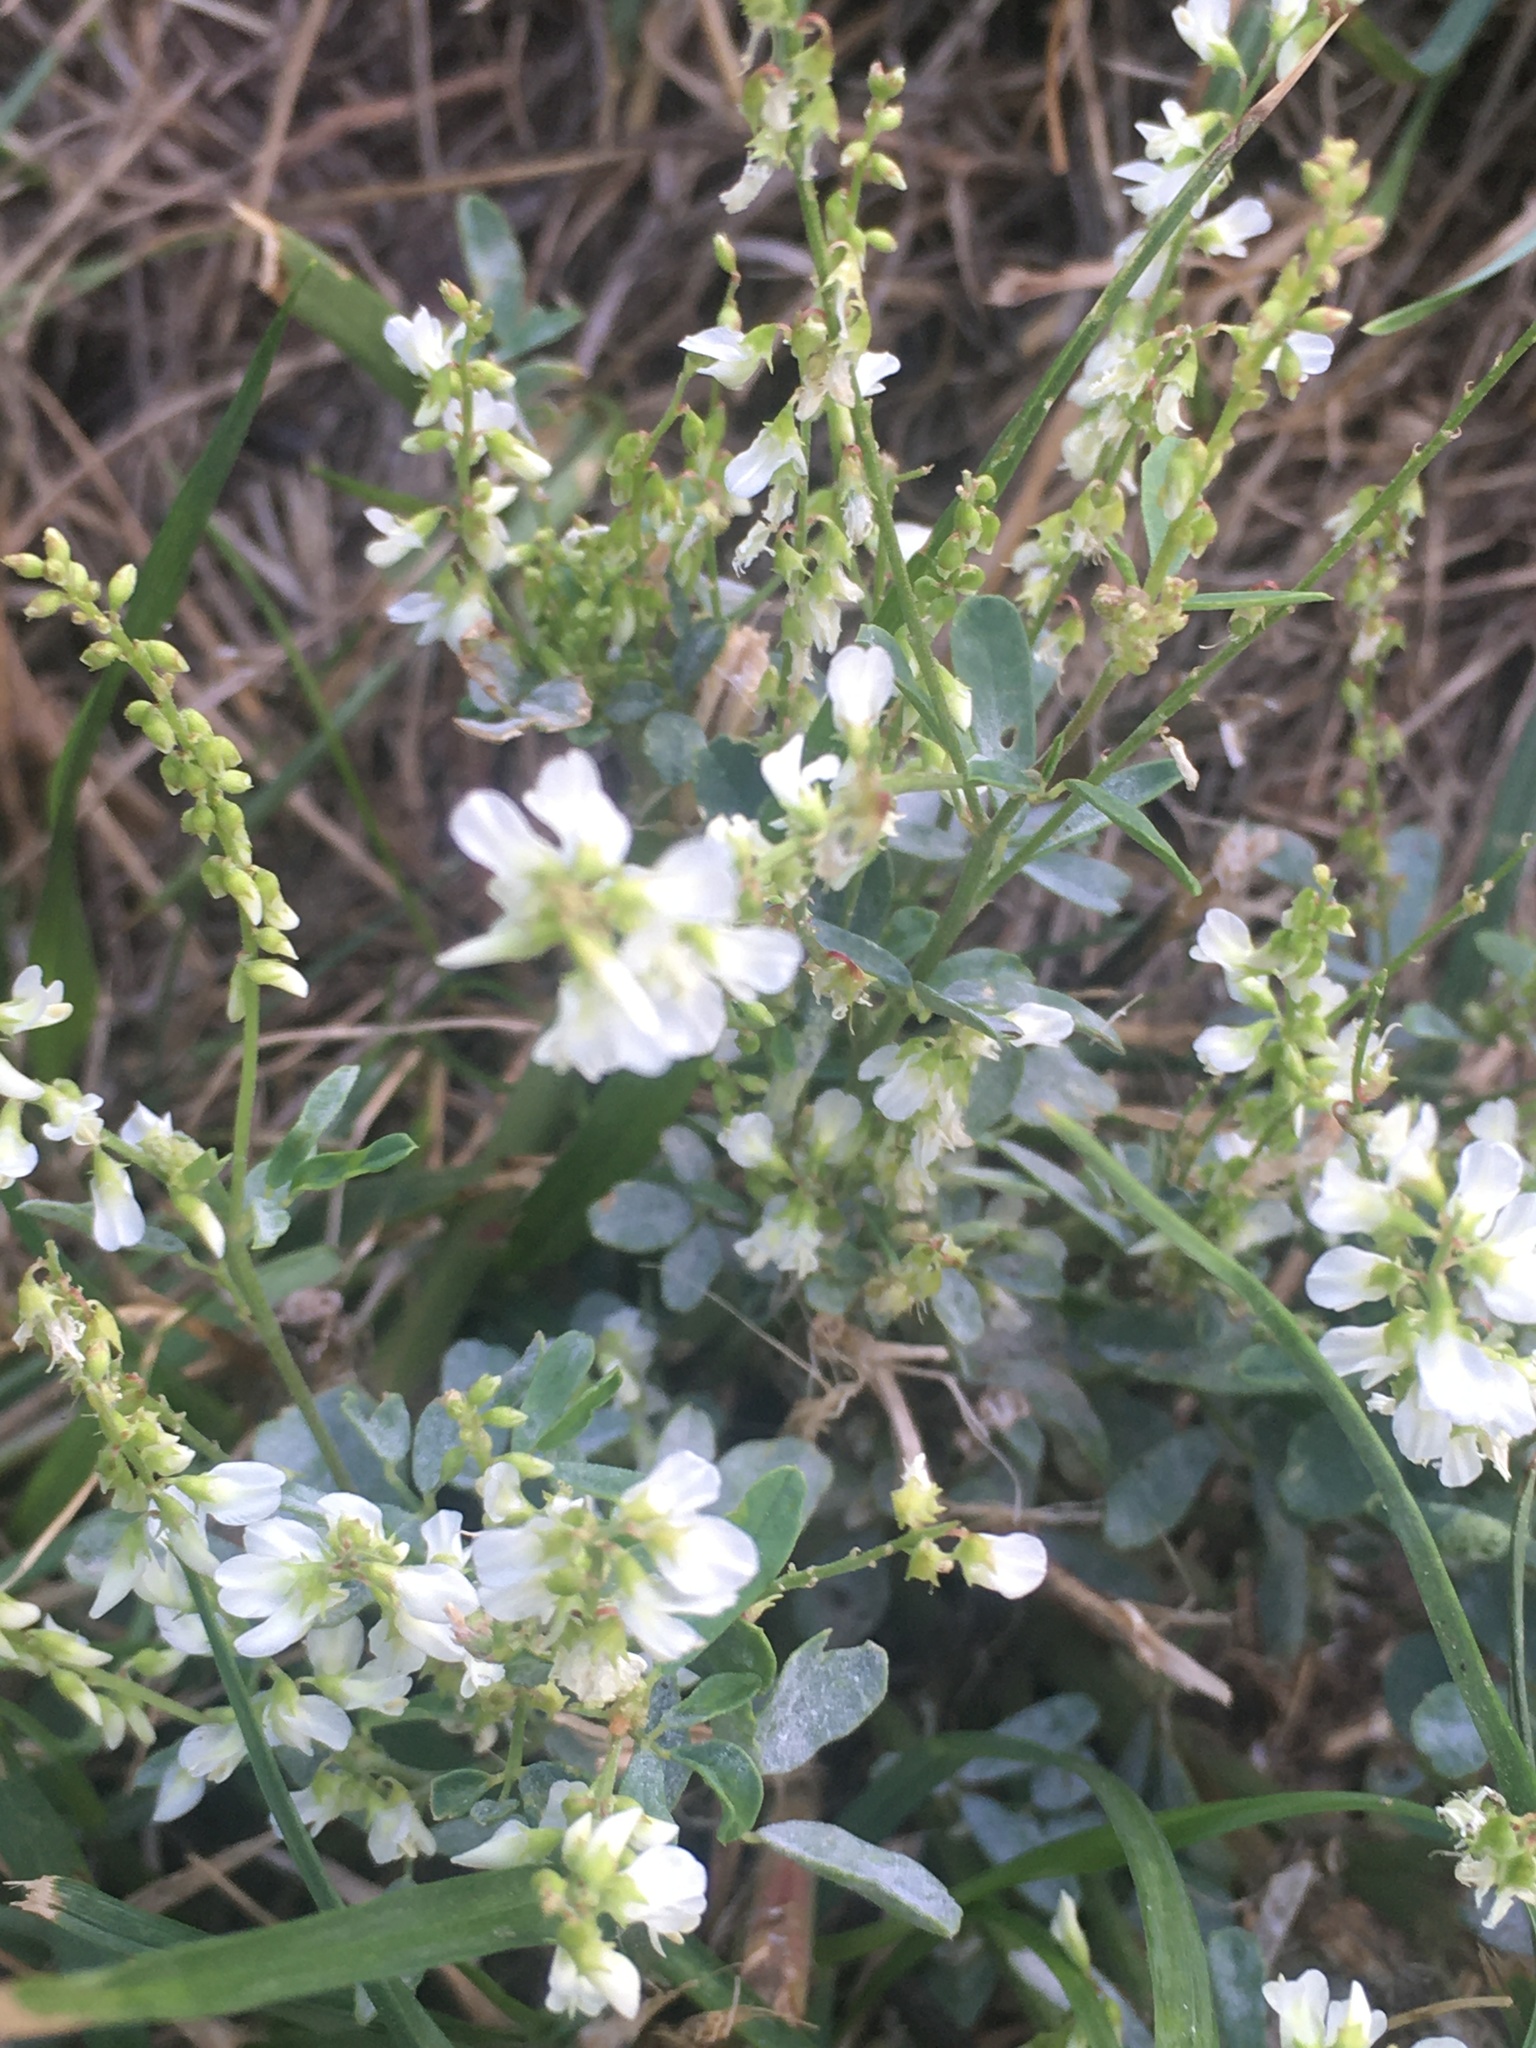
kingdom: Plantae
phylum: Tracheophyta
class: Magnoliopsida
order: Fabales
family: Fabaceae
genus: Melilotus
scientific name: Melilotus albus
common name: White melilot
